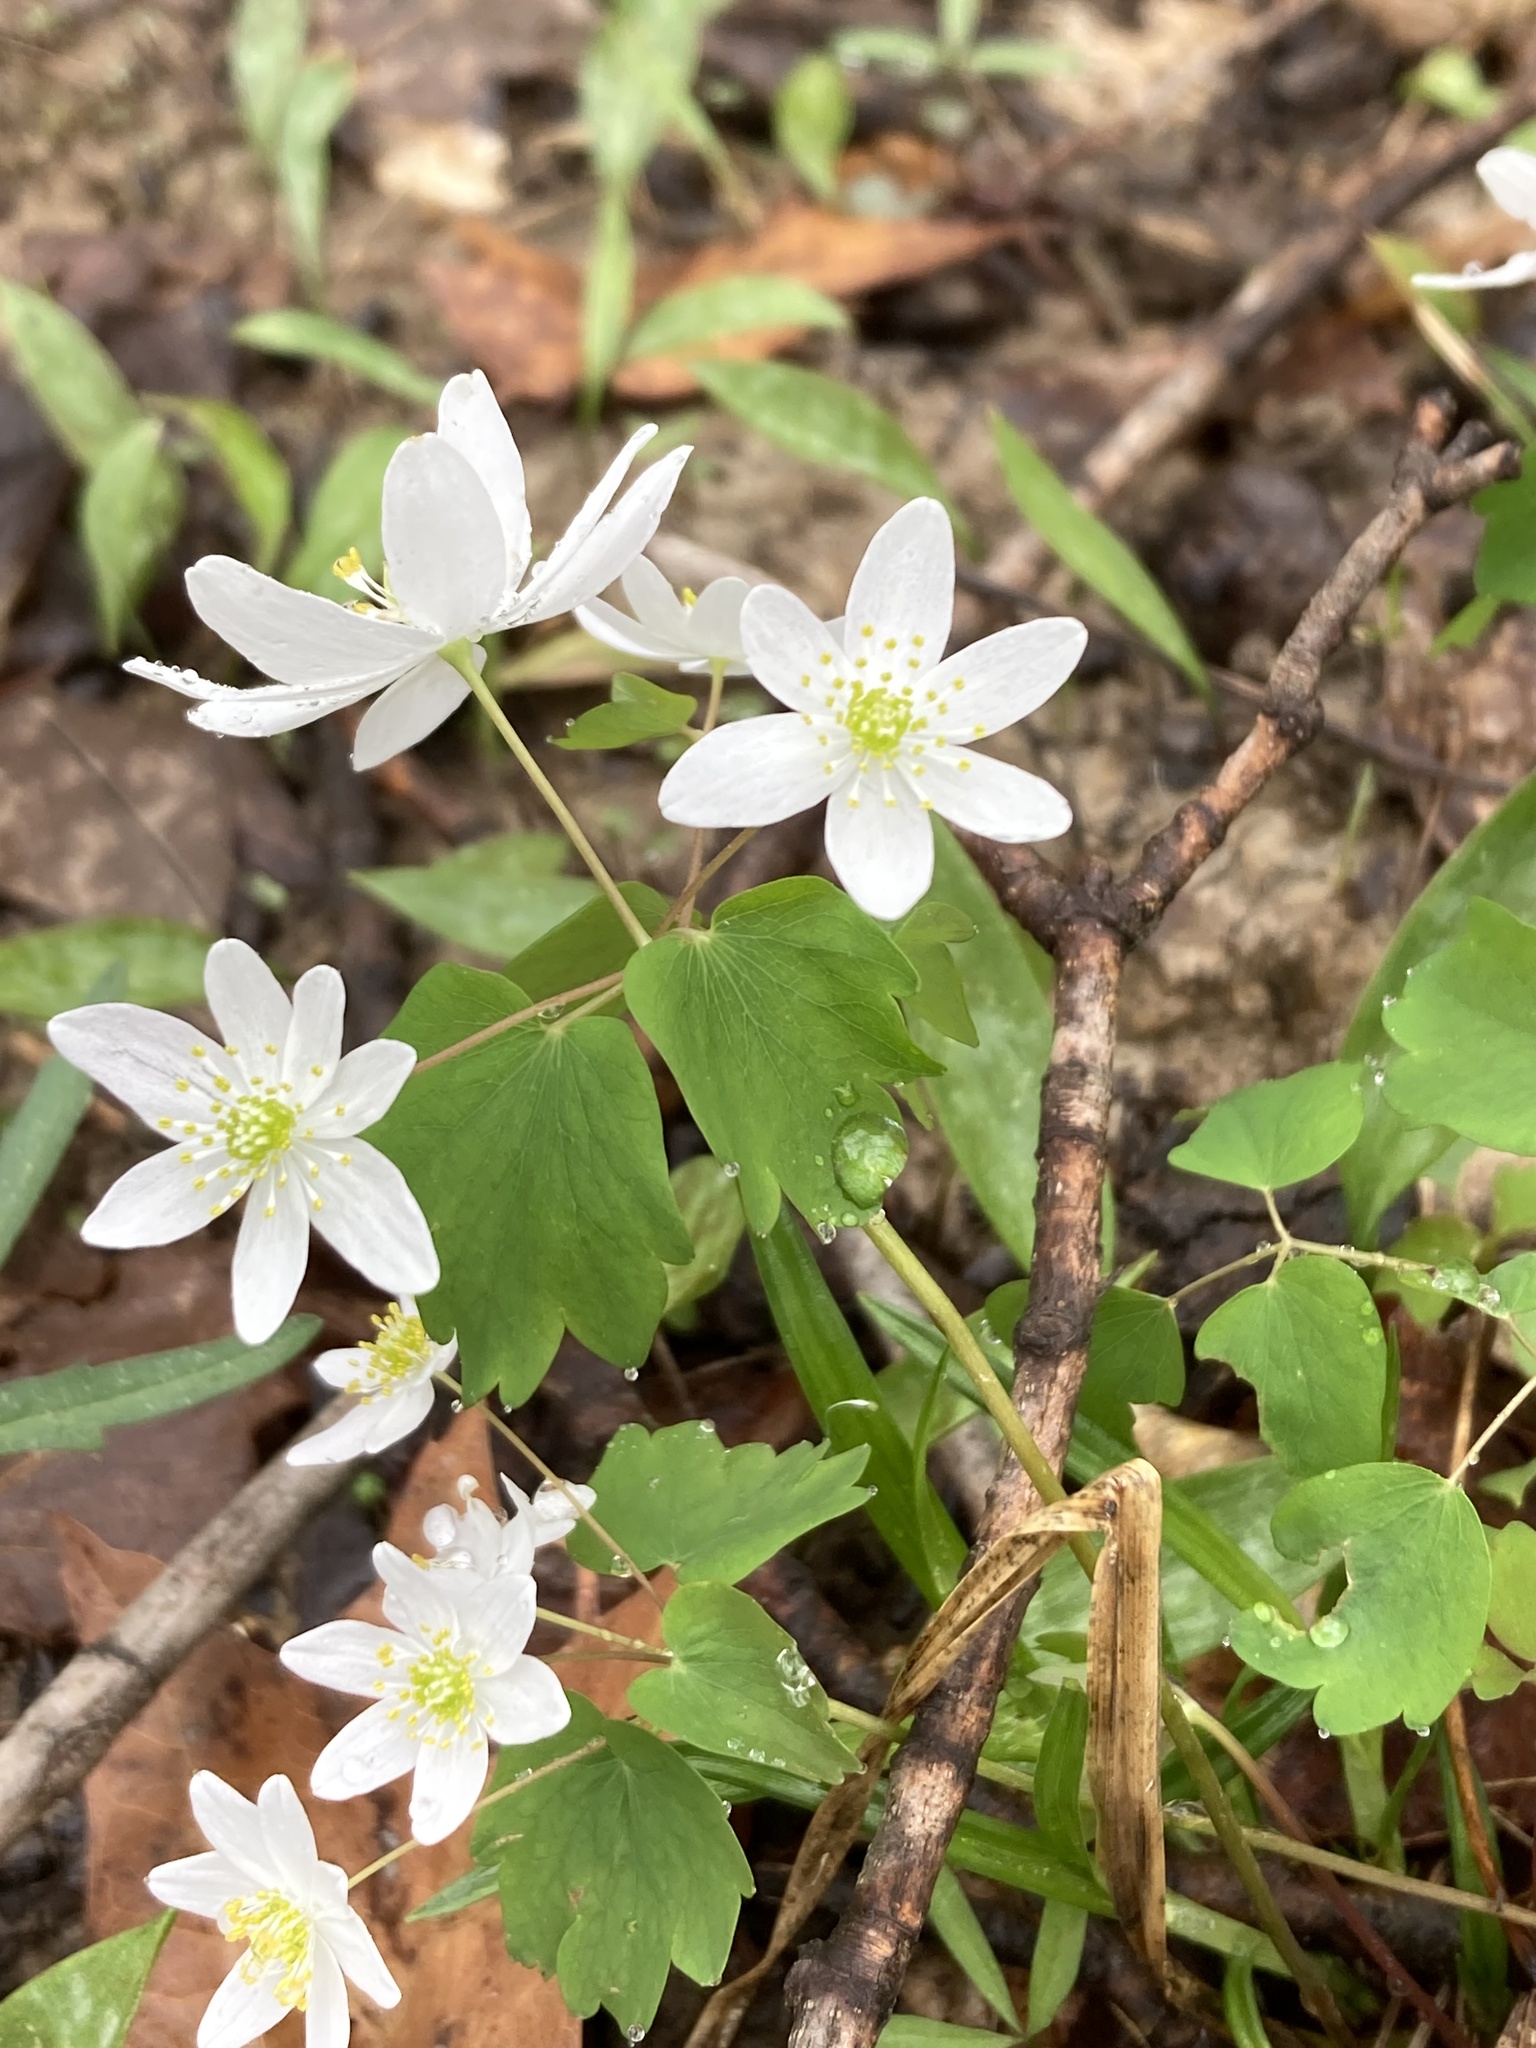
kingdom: Plantae
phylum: Tracheophyta
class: Magnoliopsida
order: Ranunculales
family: Ranunculaceae
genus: Thalictrum
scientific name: Thalictrum thalictroides
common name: Rue-anemone
